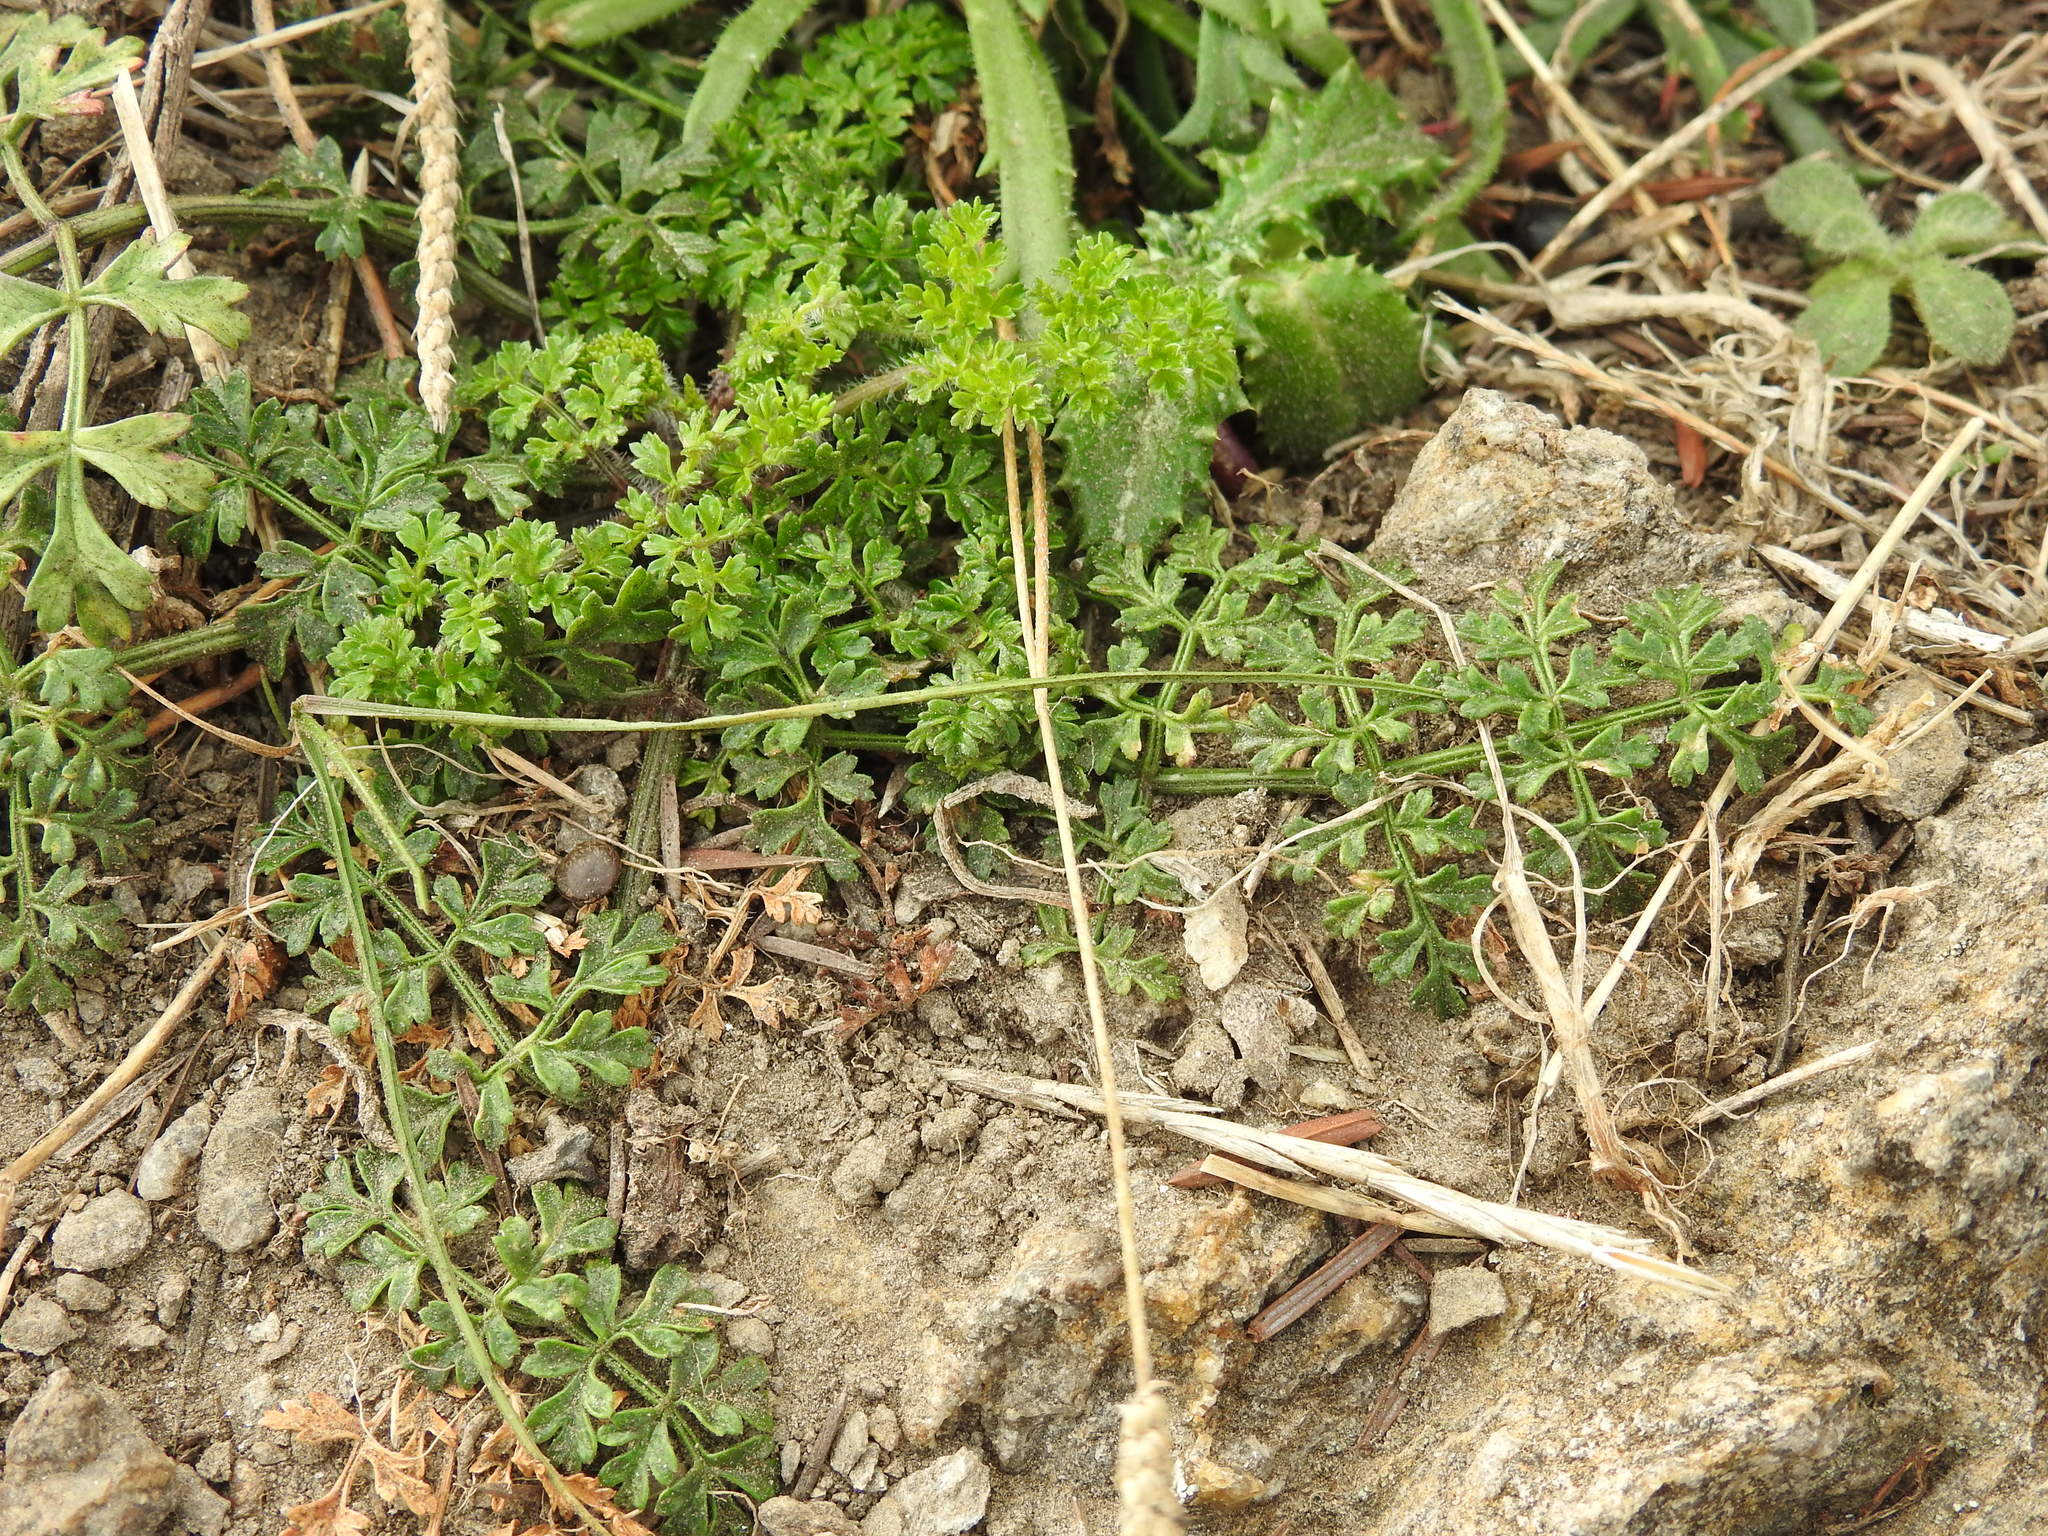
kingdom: Plantae
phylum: Tracheophyta
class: Magnoliopsida
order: Apiales
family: Apiaceae
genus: Daucus
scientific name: Daucus carota
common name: Wild carrot
